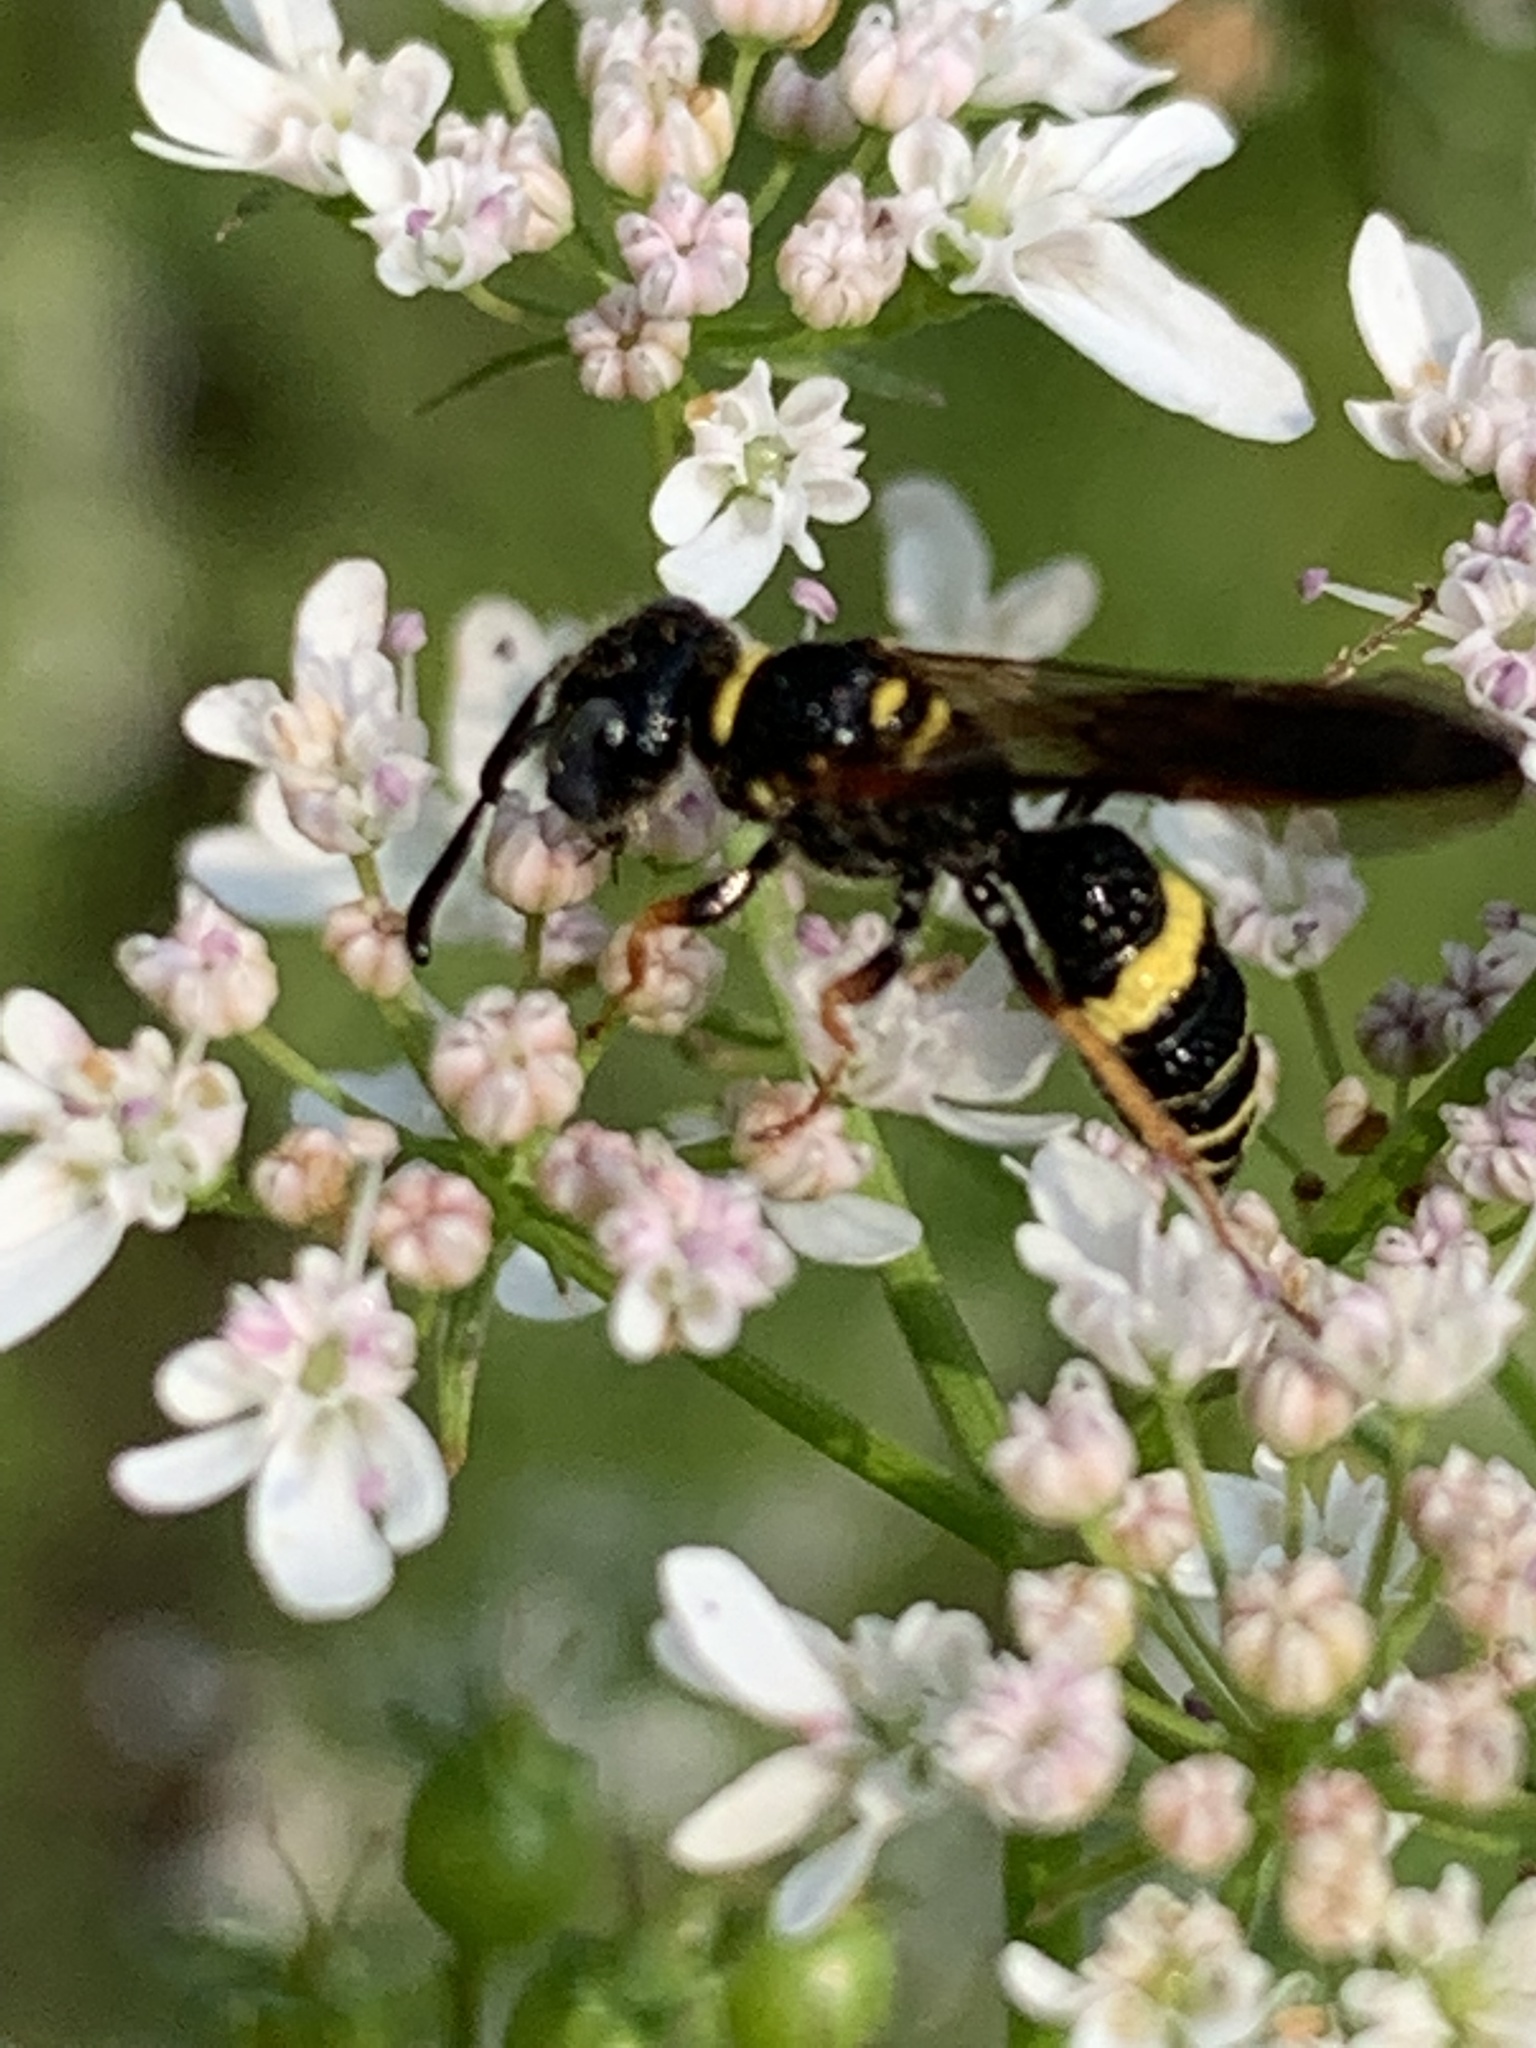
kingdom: Animalia
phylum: Arthropoda
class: Insecta
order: Hymenoptera
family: Crabronidae
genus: Philanthus
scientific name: Philanthus gibbosus
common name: Humped beewolf
